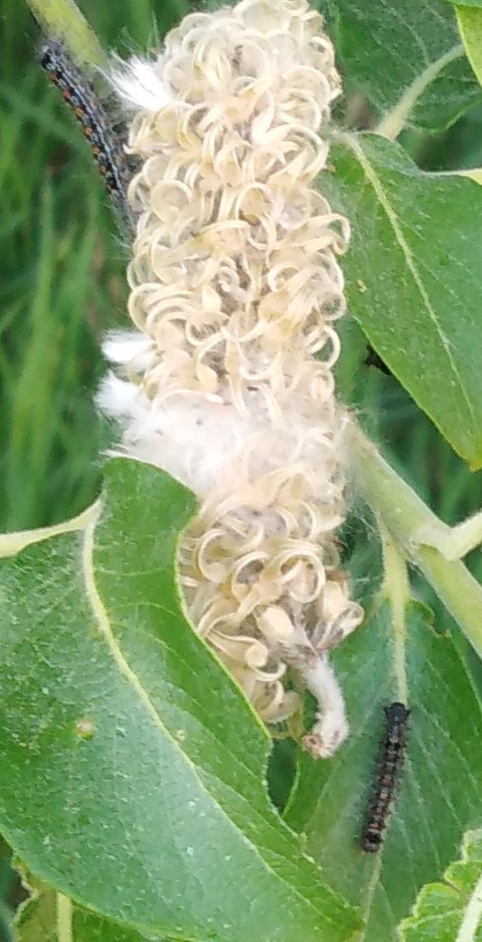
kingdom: Animalia
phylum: Arthropoda
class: Insecta
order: Lepidoptera
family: Erebidae
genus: Lymantria
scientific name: Lymantria dispar
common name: Gypsy moth
